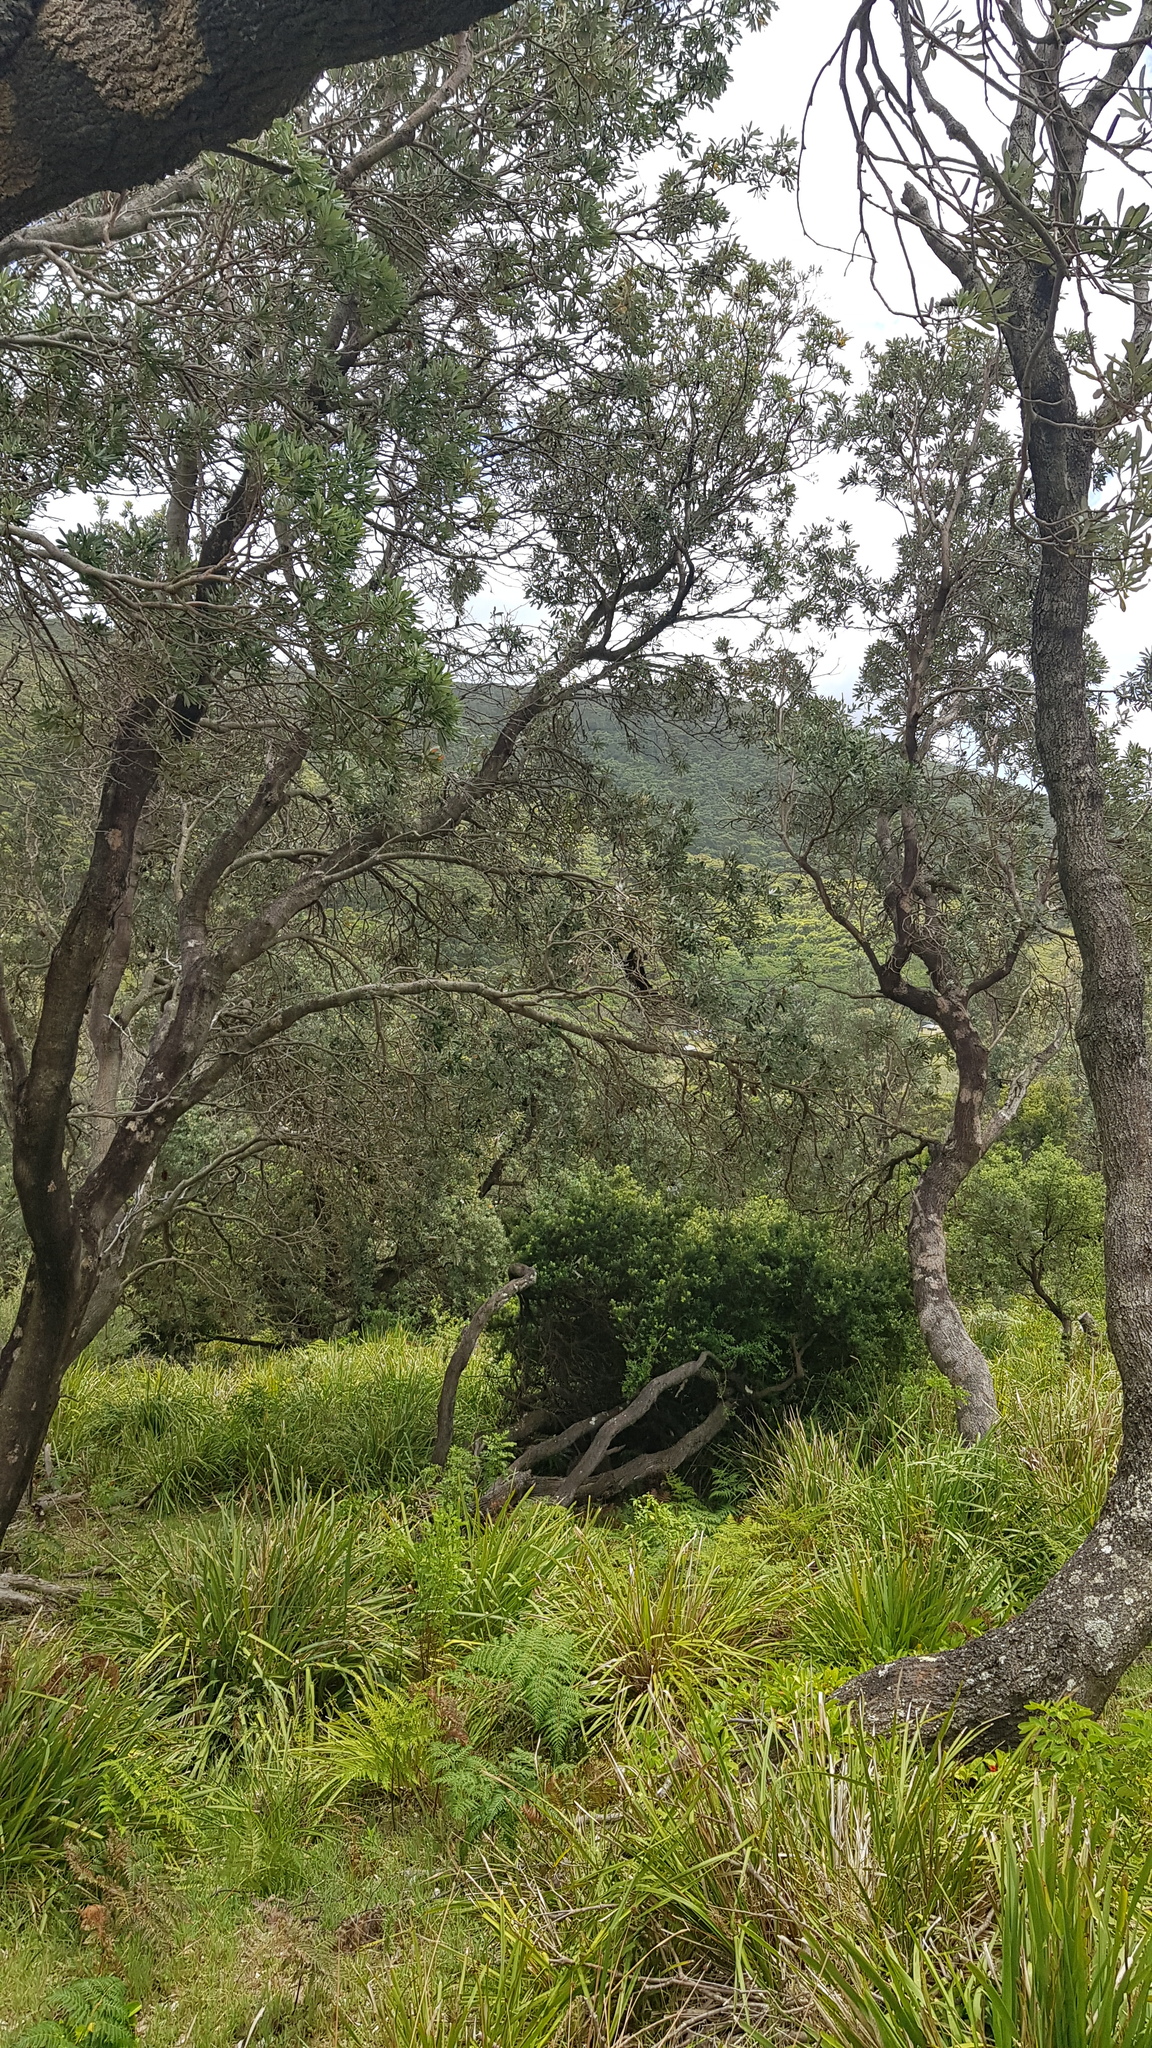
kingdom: Animalia
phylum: Chordata
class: Aves
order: Psittaciformes
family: Cacatuidae
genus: Zanda
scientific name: Zanda funerea
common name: Yellow-tailed black-cockatoo
